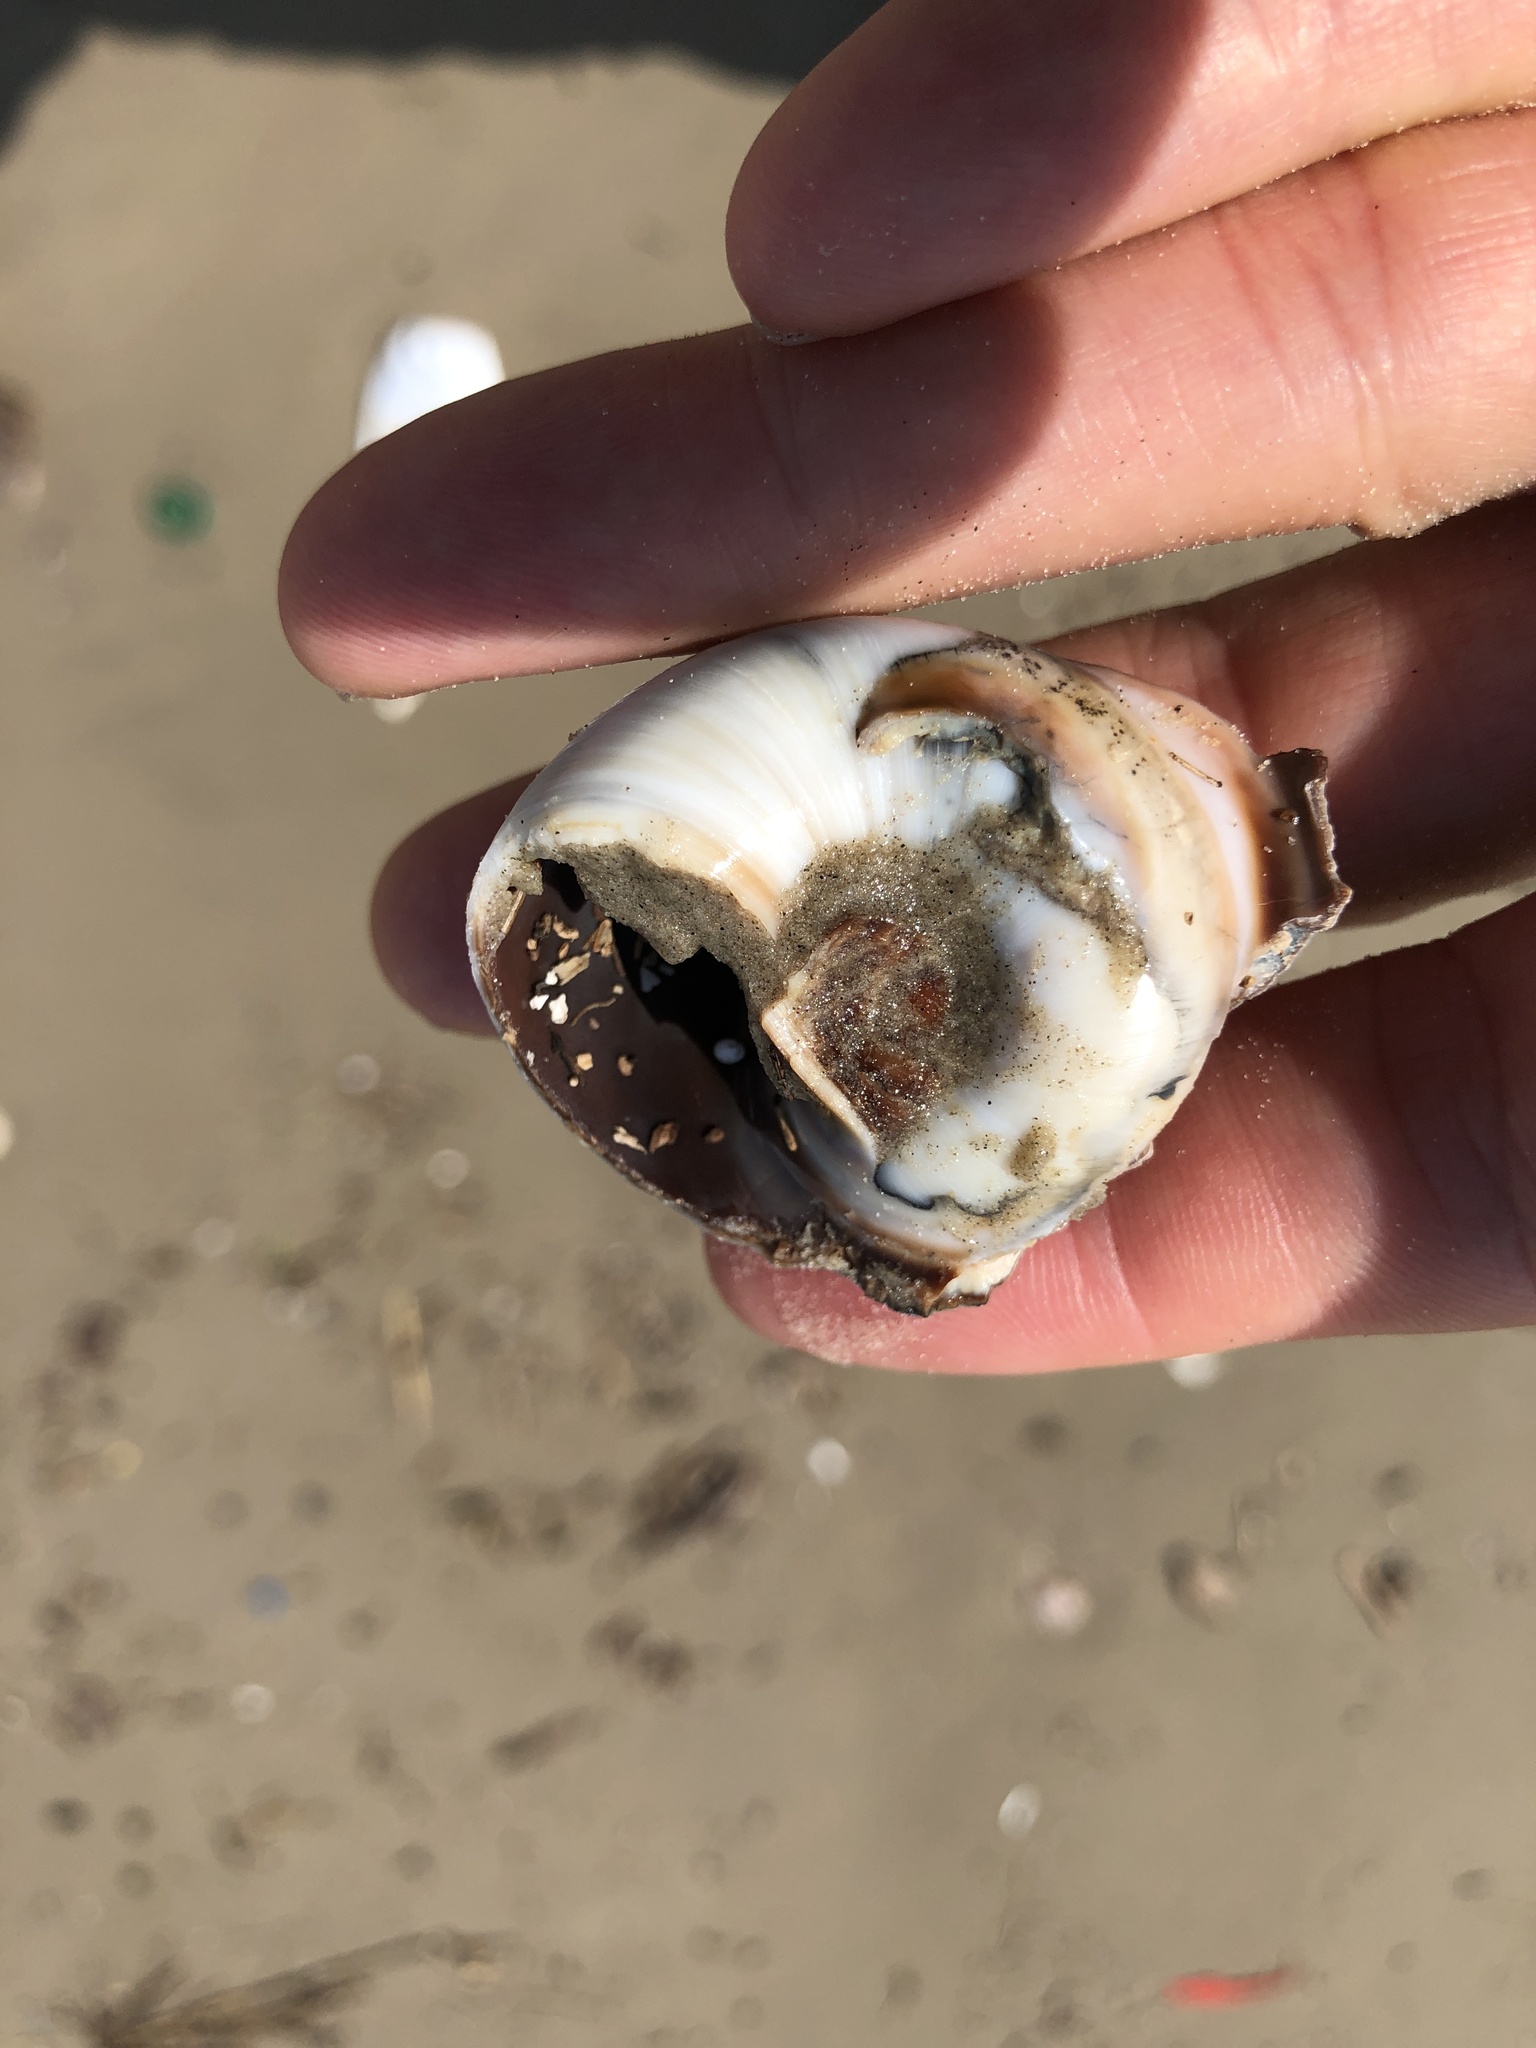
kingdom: Animalia
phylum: Mollusca
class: Gastropoda
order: Littorinimorpha
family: Naticidae
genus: Neverita
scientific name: Neverita duplicata
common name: Lobed moonsnail
